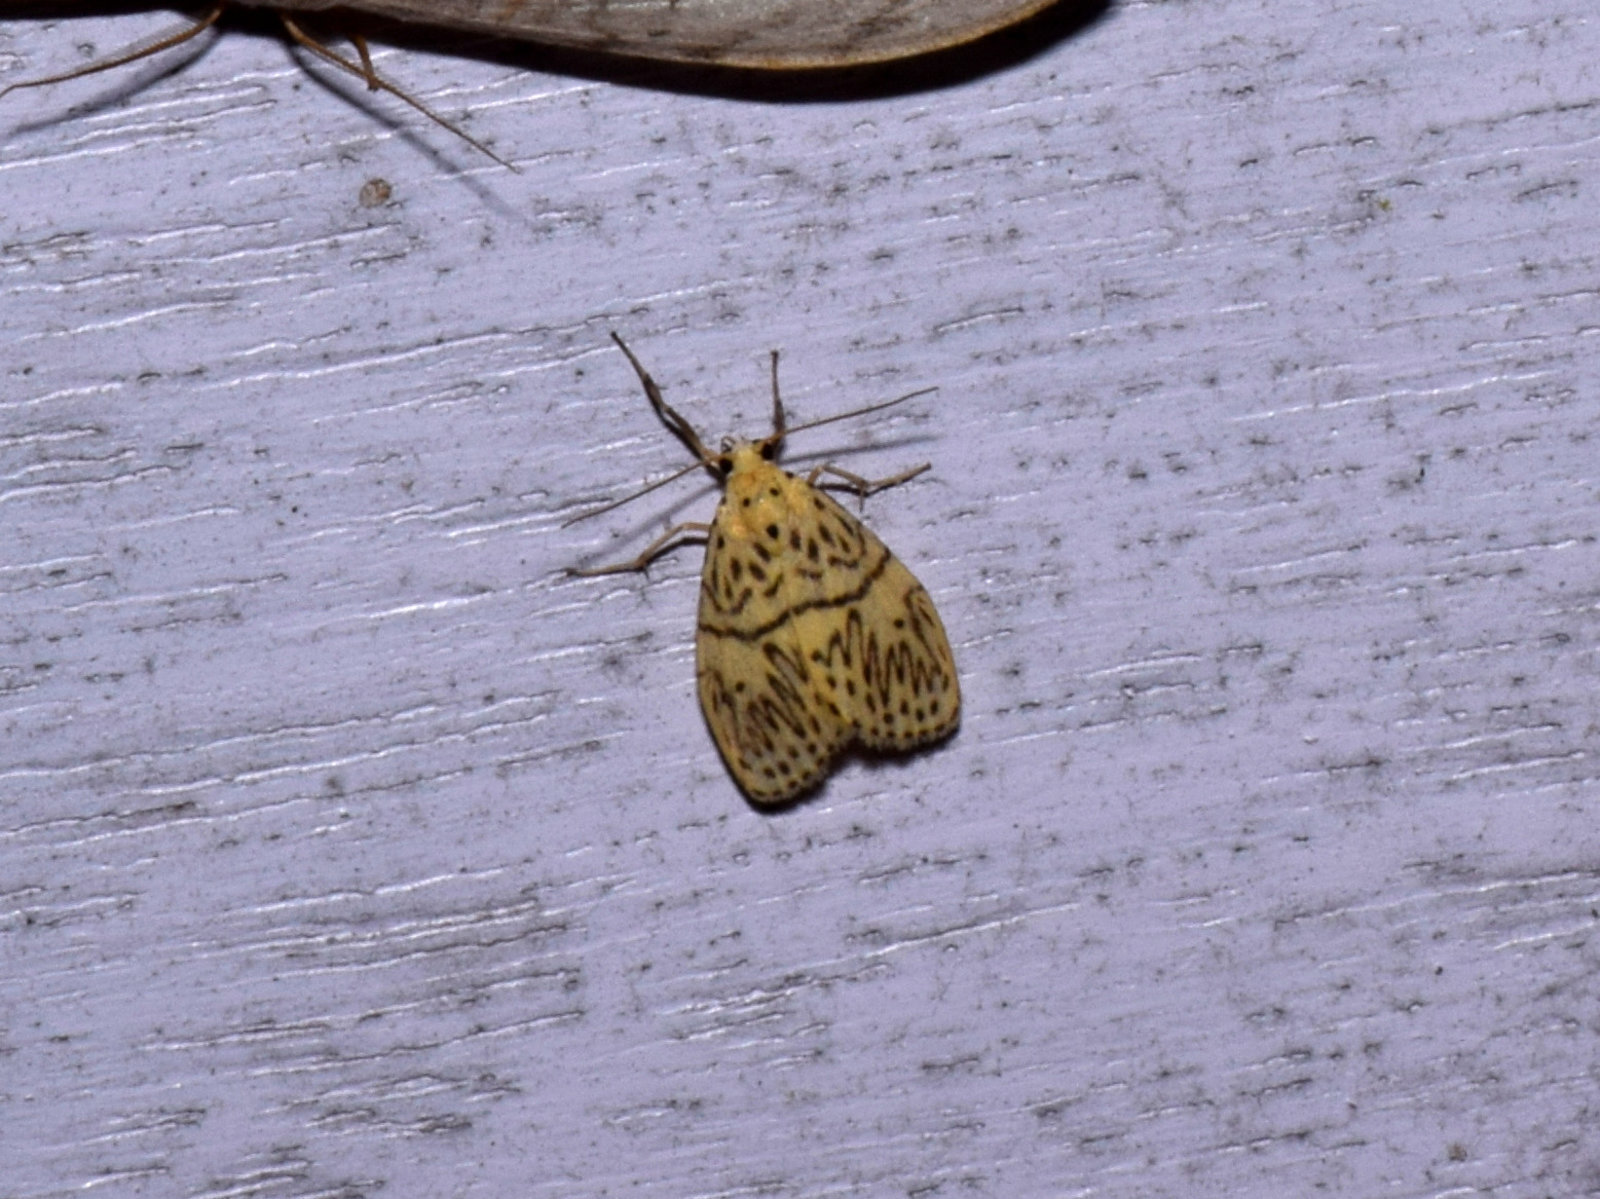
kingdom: Animalia
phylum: Arthropoda
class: Insecta
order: Lepidoptera
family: Erebidae
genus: Pseudobarsine
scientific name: Pseudobarsine bombdilensis
